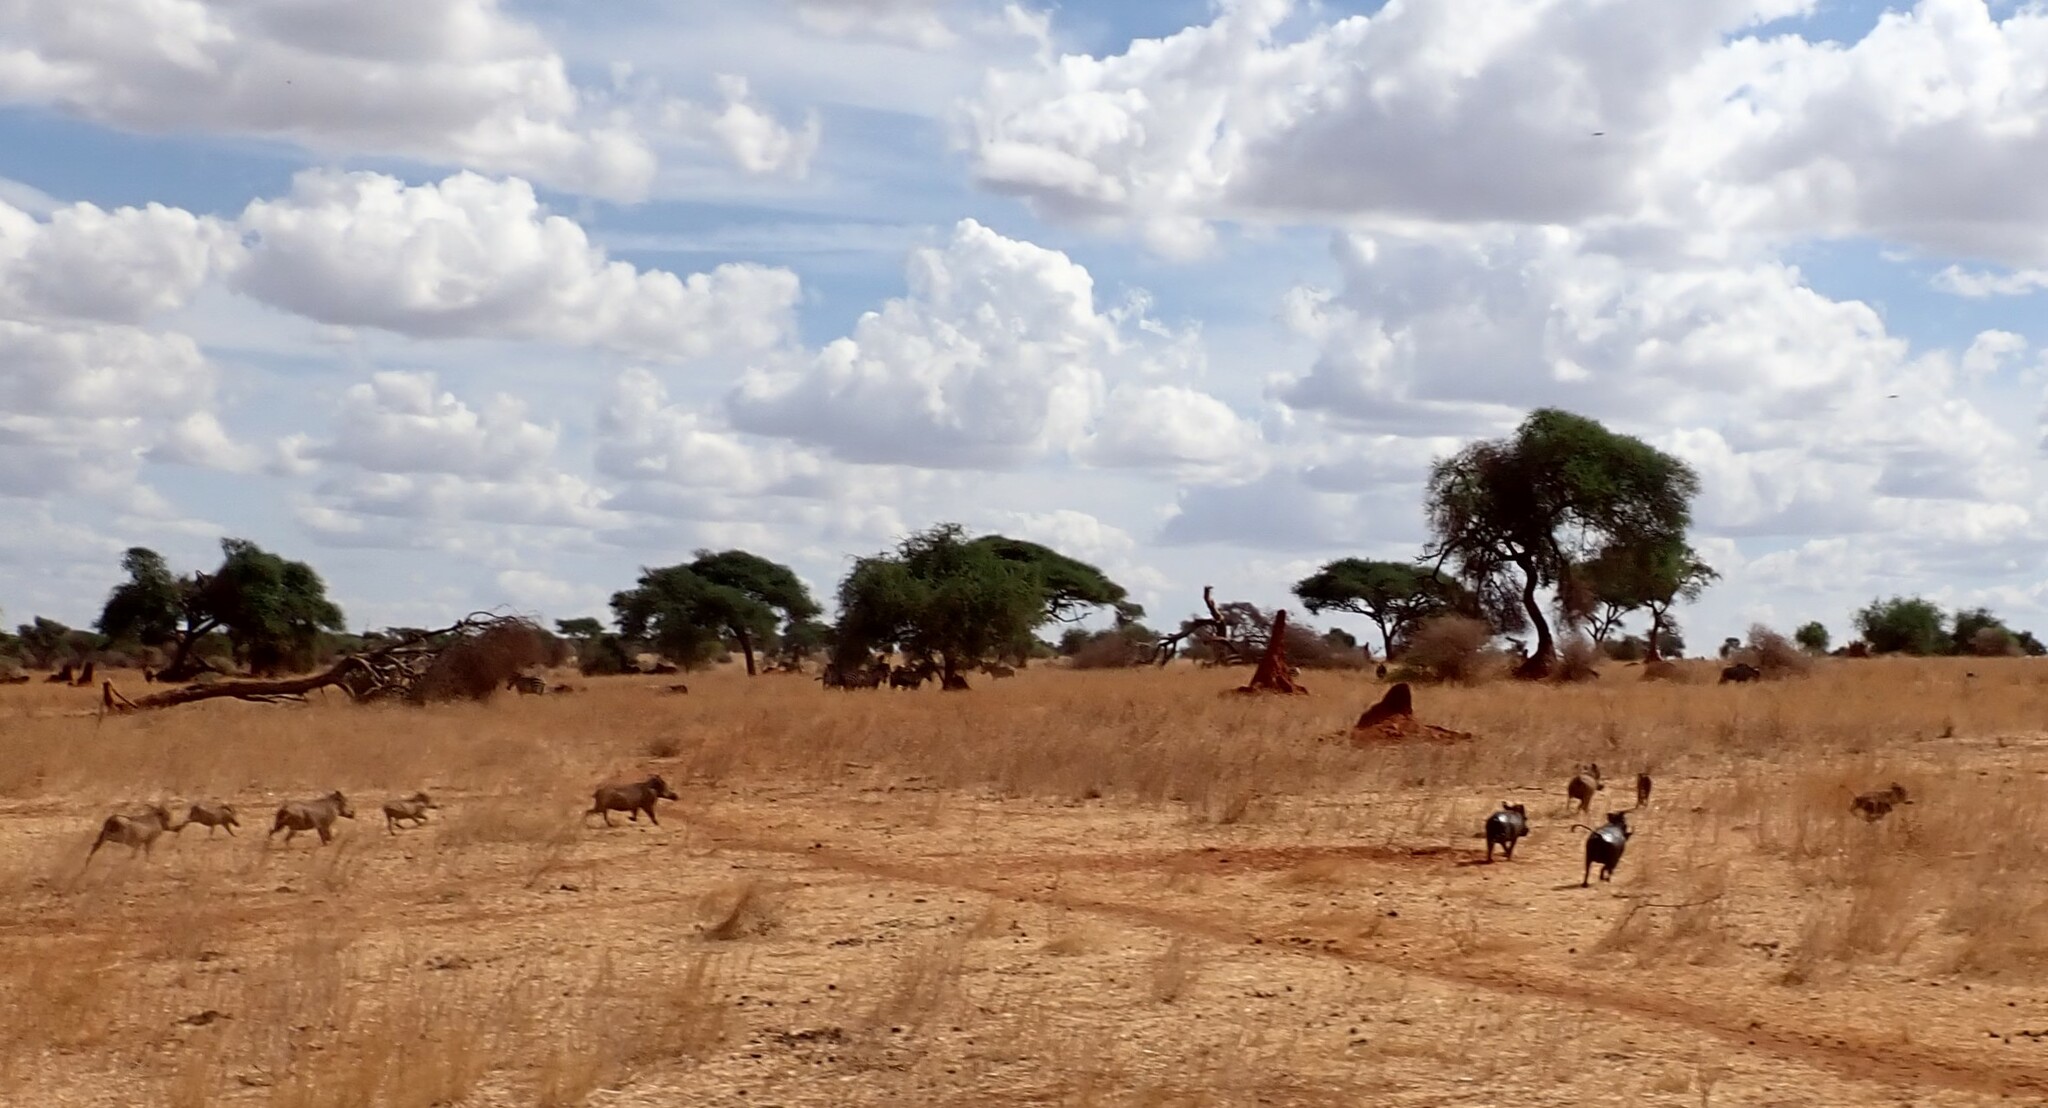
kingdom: Animalia
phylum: Chordata
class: Mammalia
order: Artiodactyla
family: Suidae
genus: Phacochoerus
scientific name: Phacochoerus africanus
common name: Common warthog
